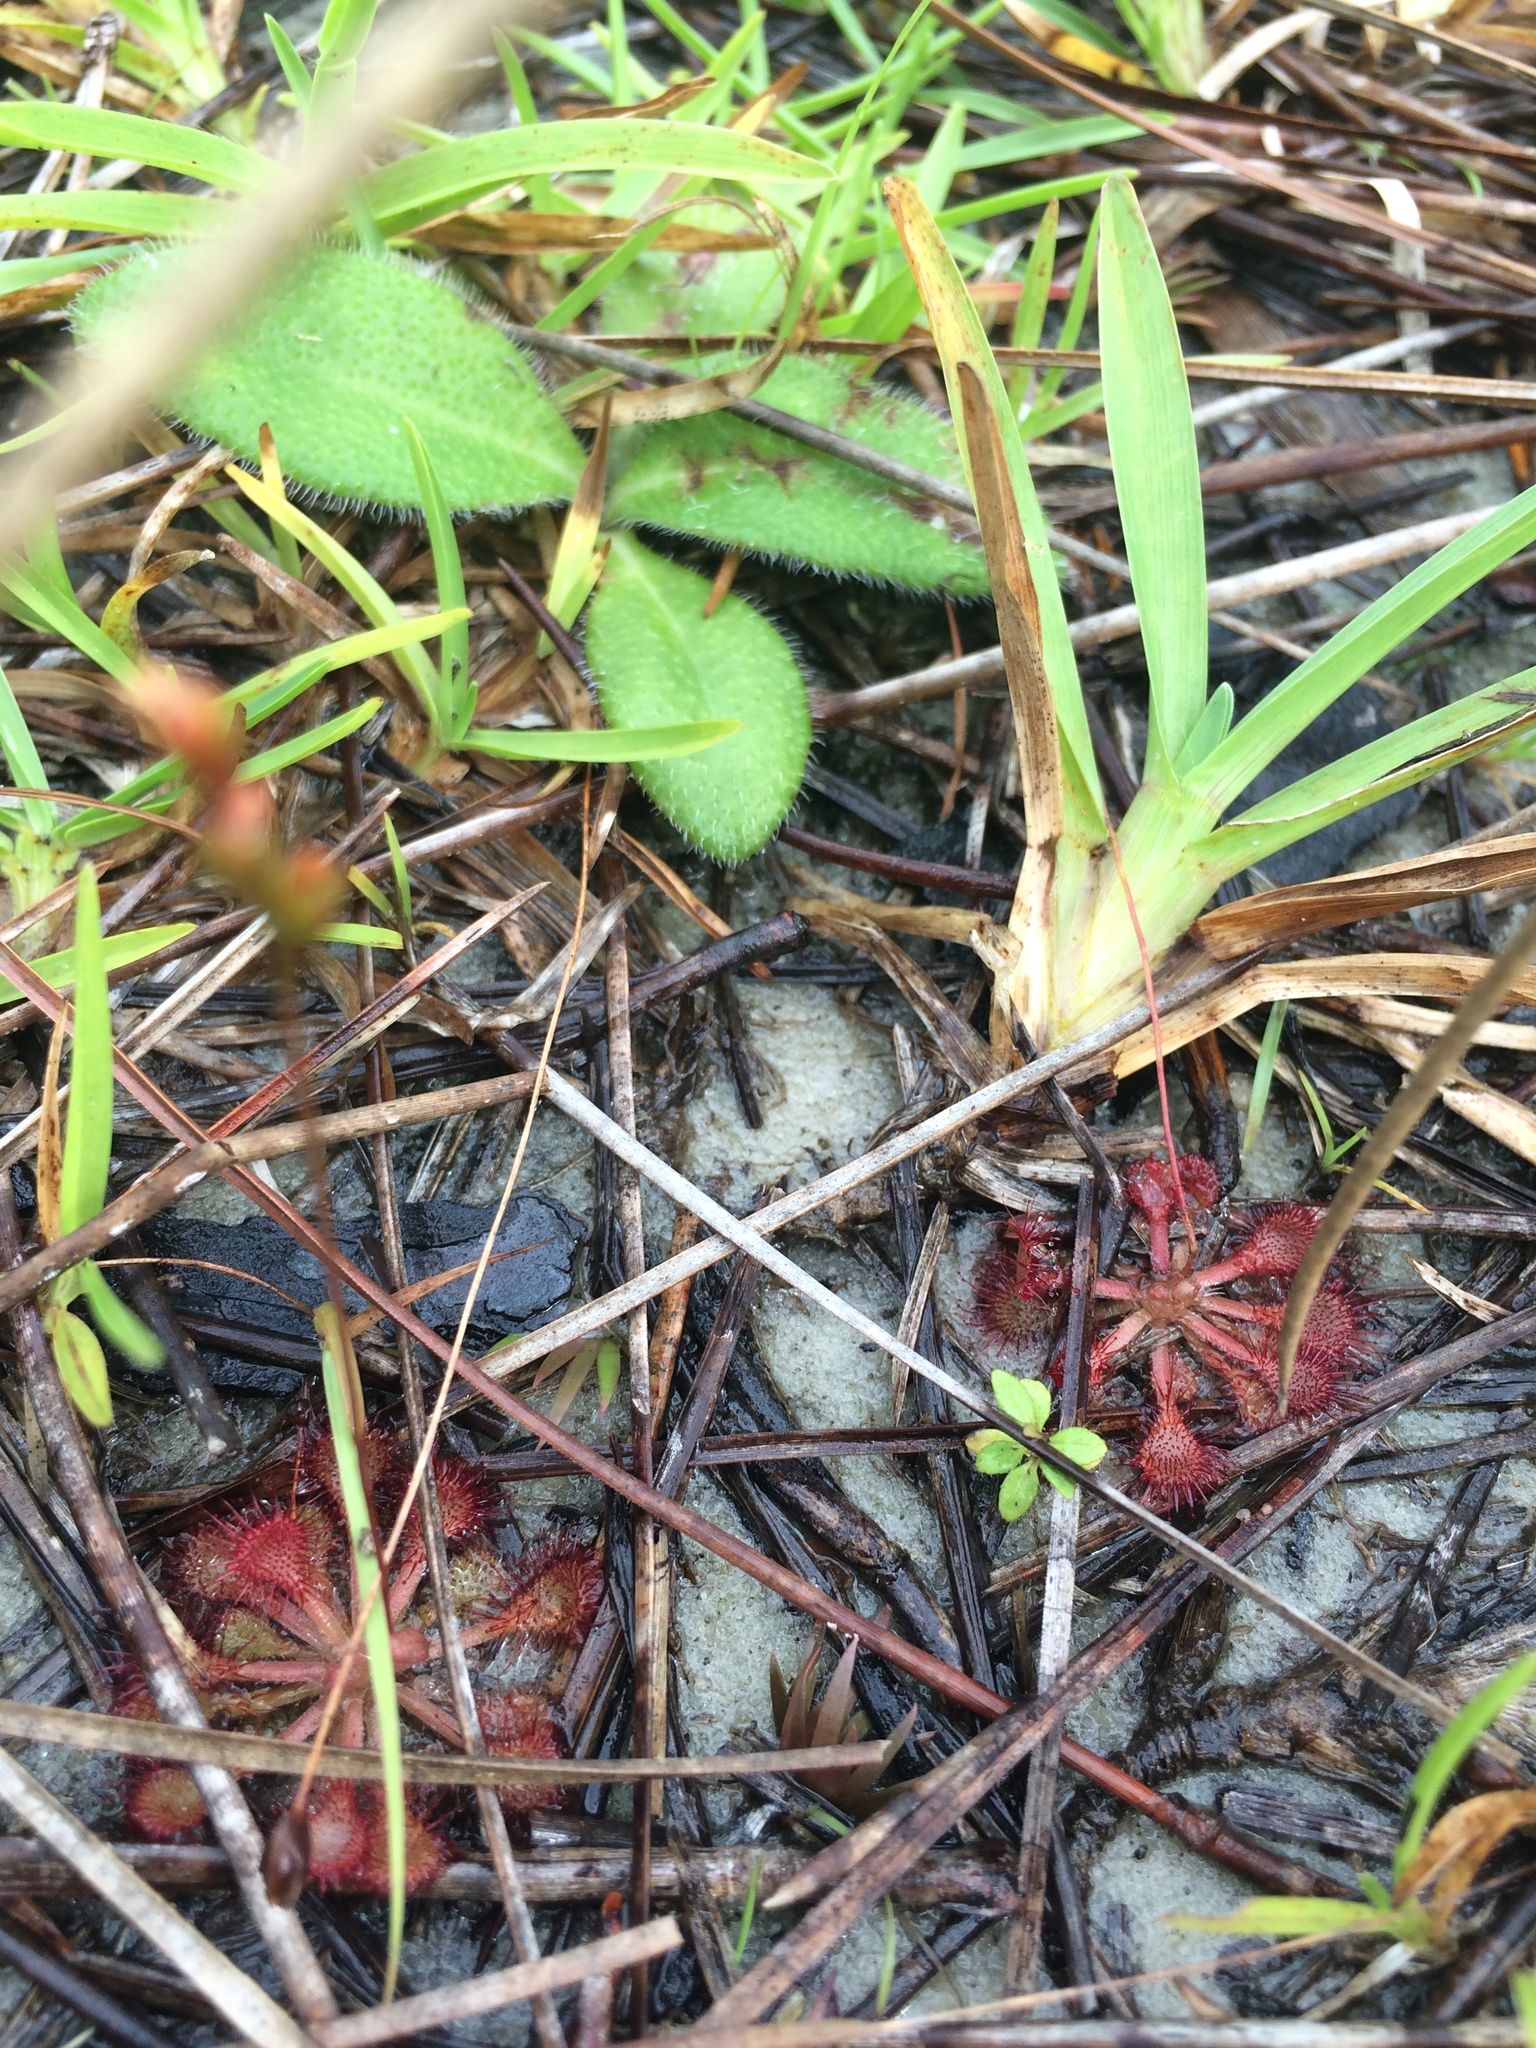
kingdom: Plantae
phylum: Tracheophyta
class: Magnoliopsida
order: Caryophyllales
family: Droseraceae
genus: Drosera
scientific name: Drosera capillaris
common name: Pink sundew
